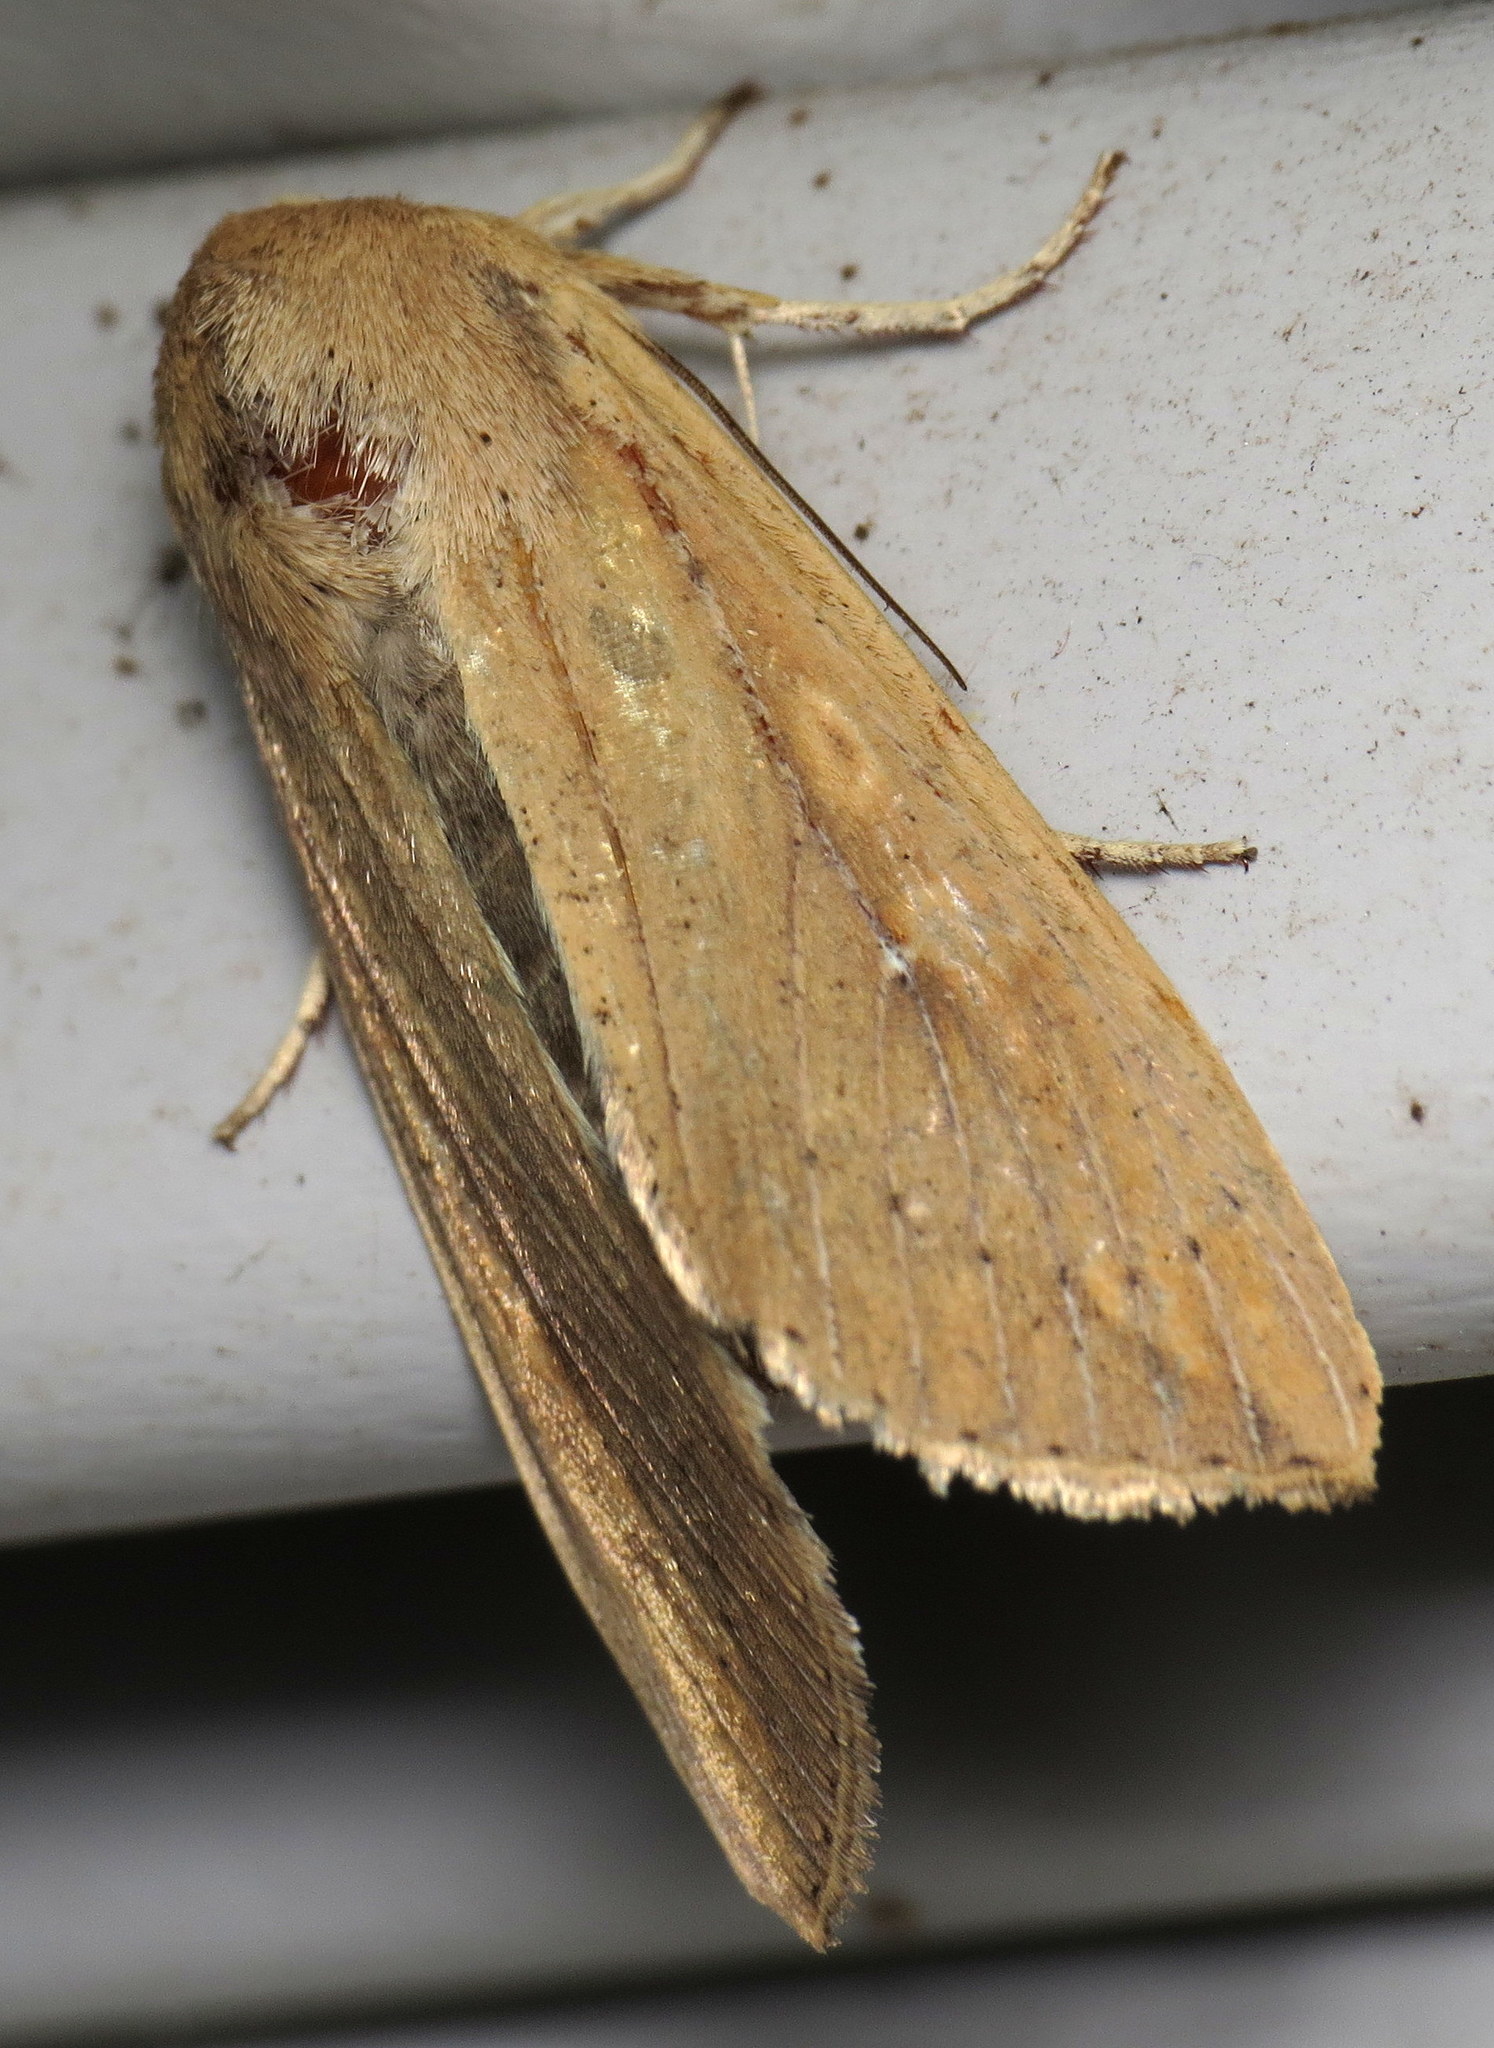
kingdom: Animalia
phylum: Arthropoda
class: Insecta
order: Lepidoptera
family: Noctuidae
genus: Mythimna
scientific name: Mythimna unipuncta
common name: White-speck
